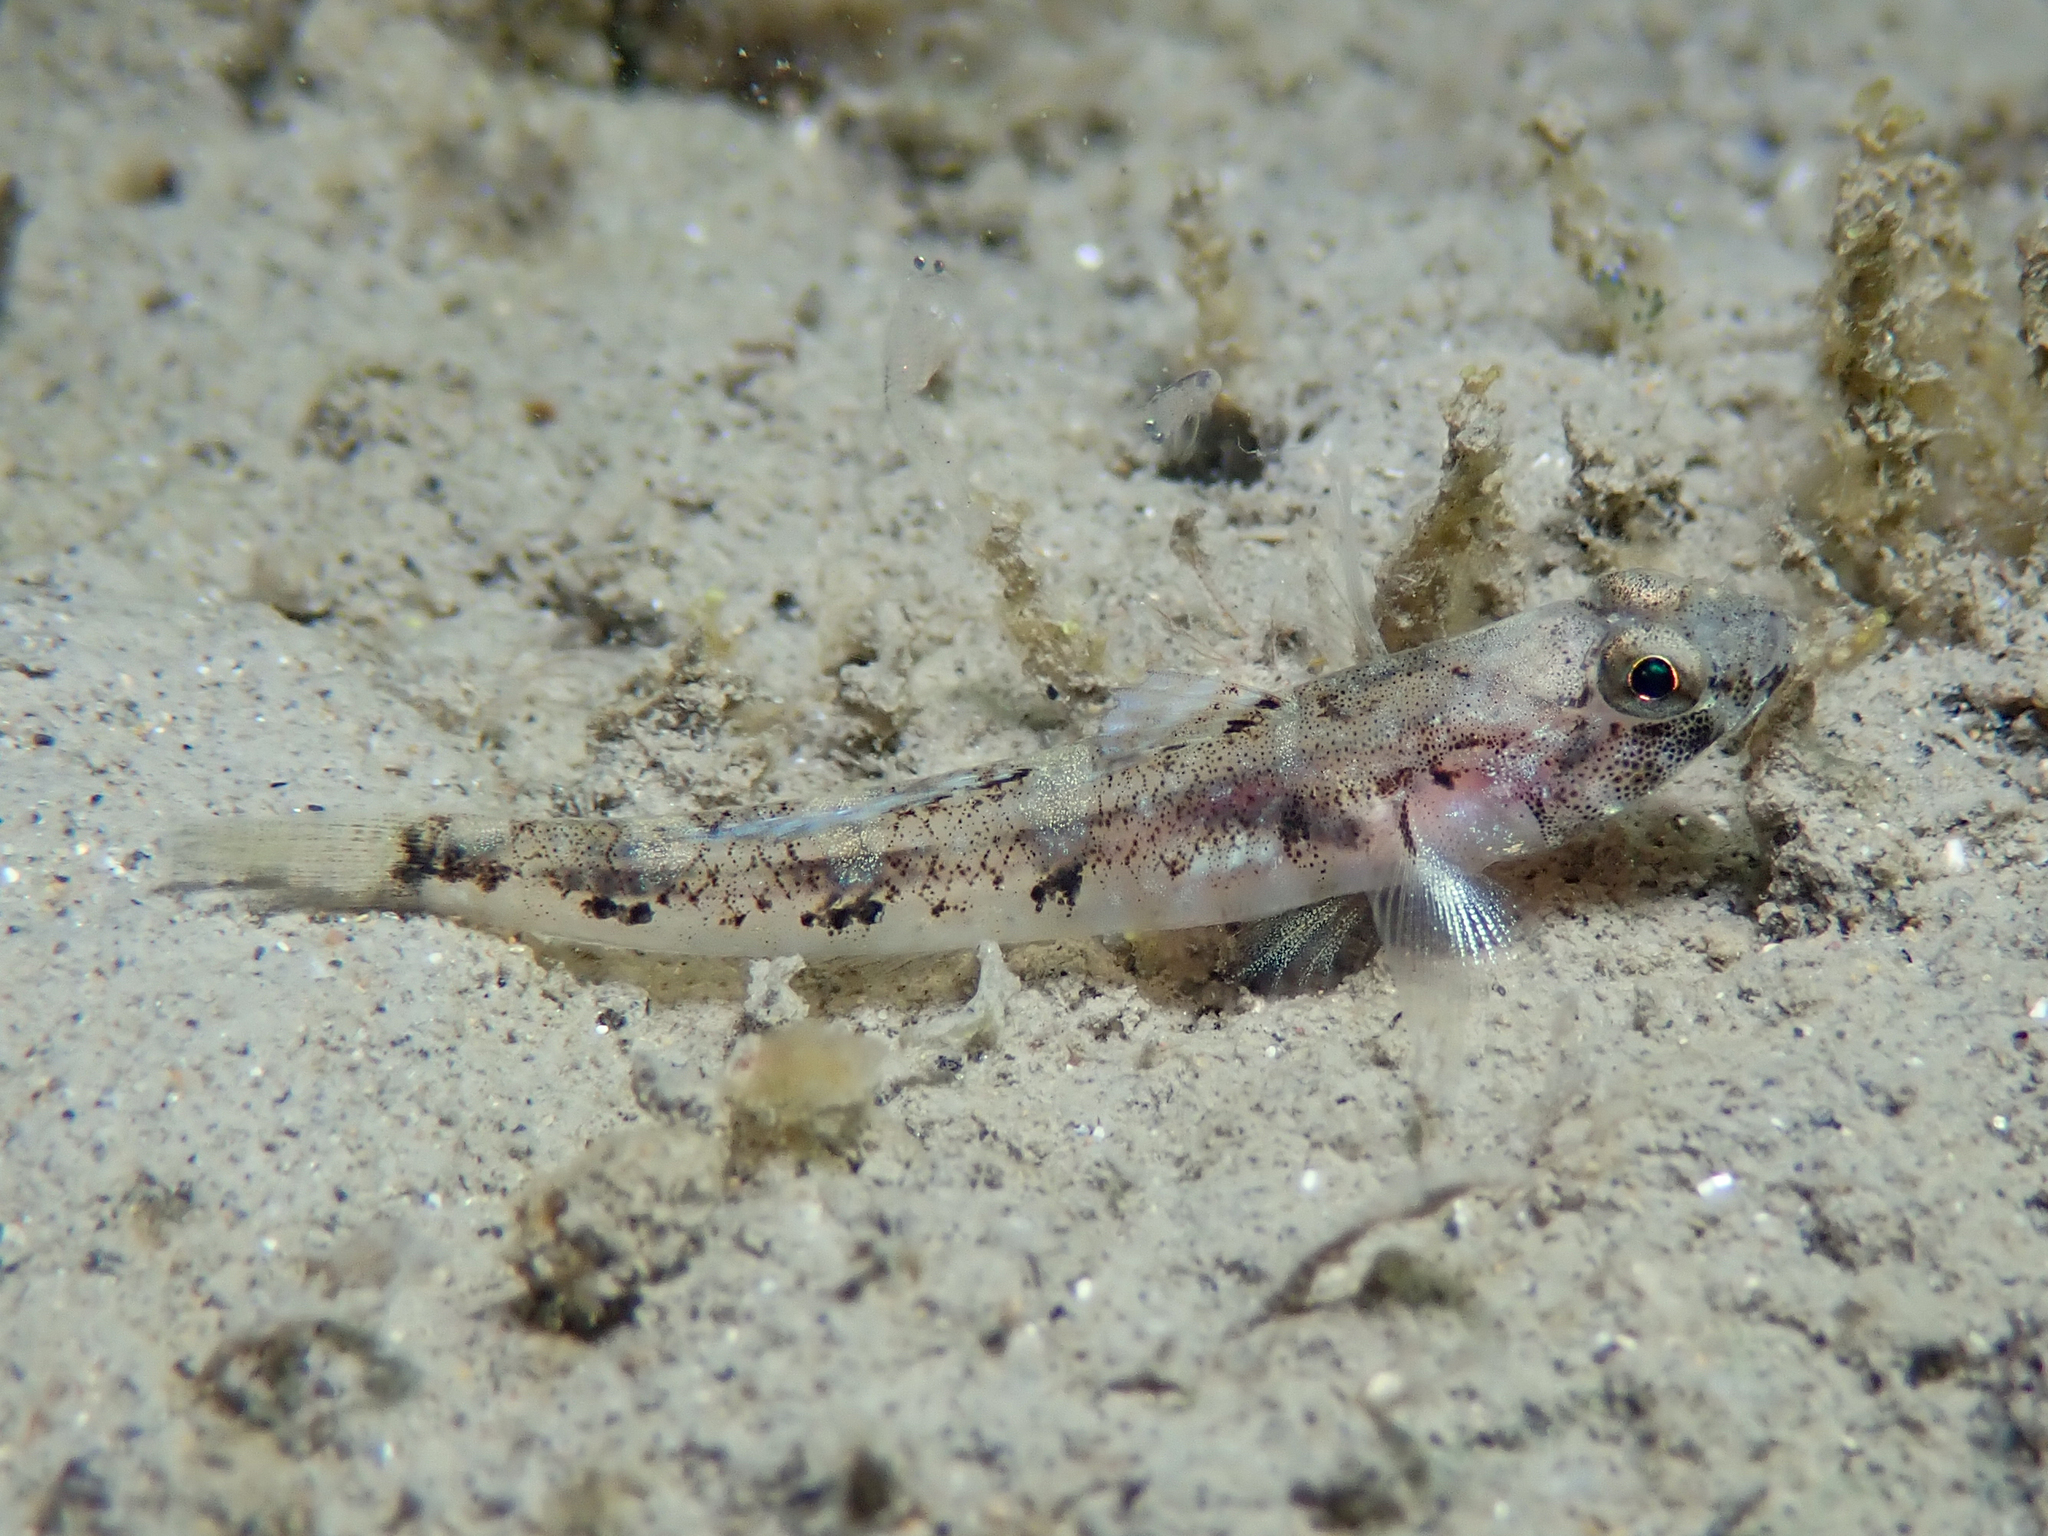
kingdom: Animalia
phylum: Chordata
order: Perciformes
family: Gobiidae
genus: Pomatoschistus
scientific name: Pomatoschistus pictus
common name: Painted goby
